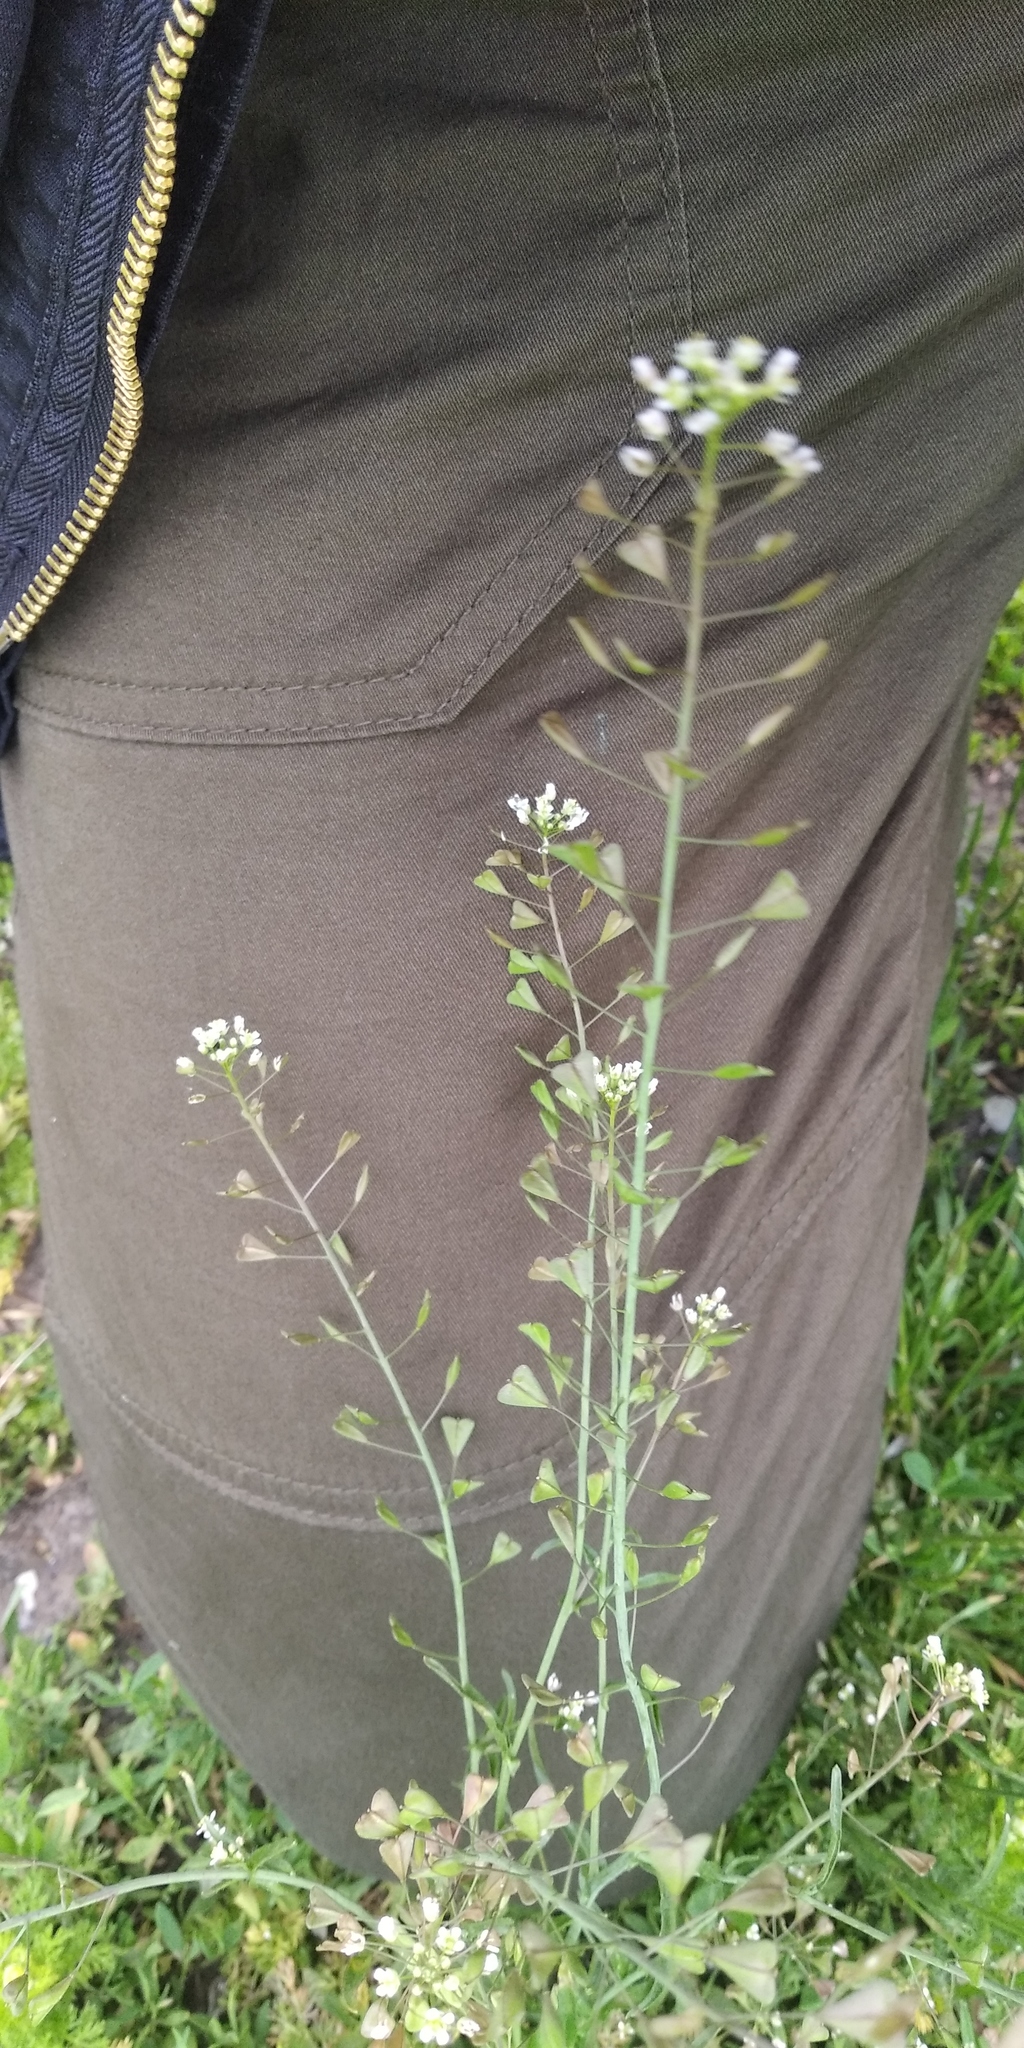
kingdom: Plantae
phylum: Tracheophyta
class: Magnoliopsida
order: Brassicales
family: Brassicaceae
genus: Capsella
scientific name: Capsella bursa-pastoris
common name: Shepherd's purse
